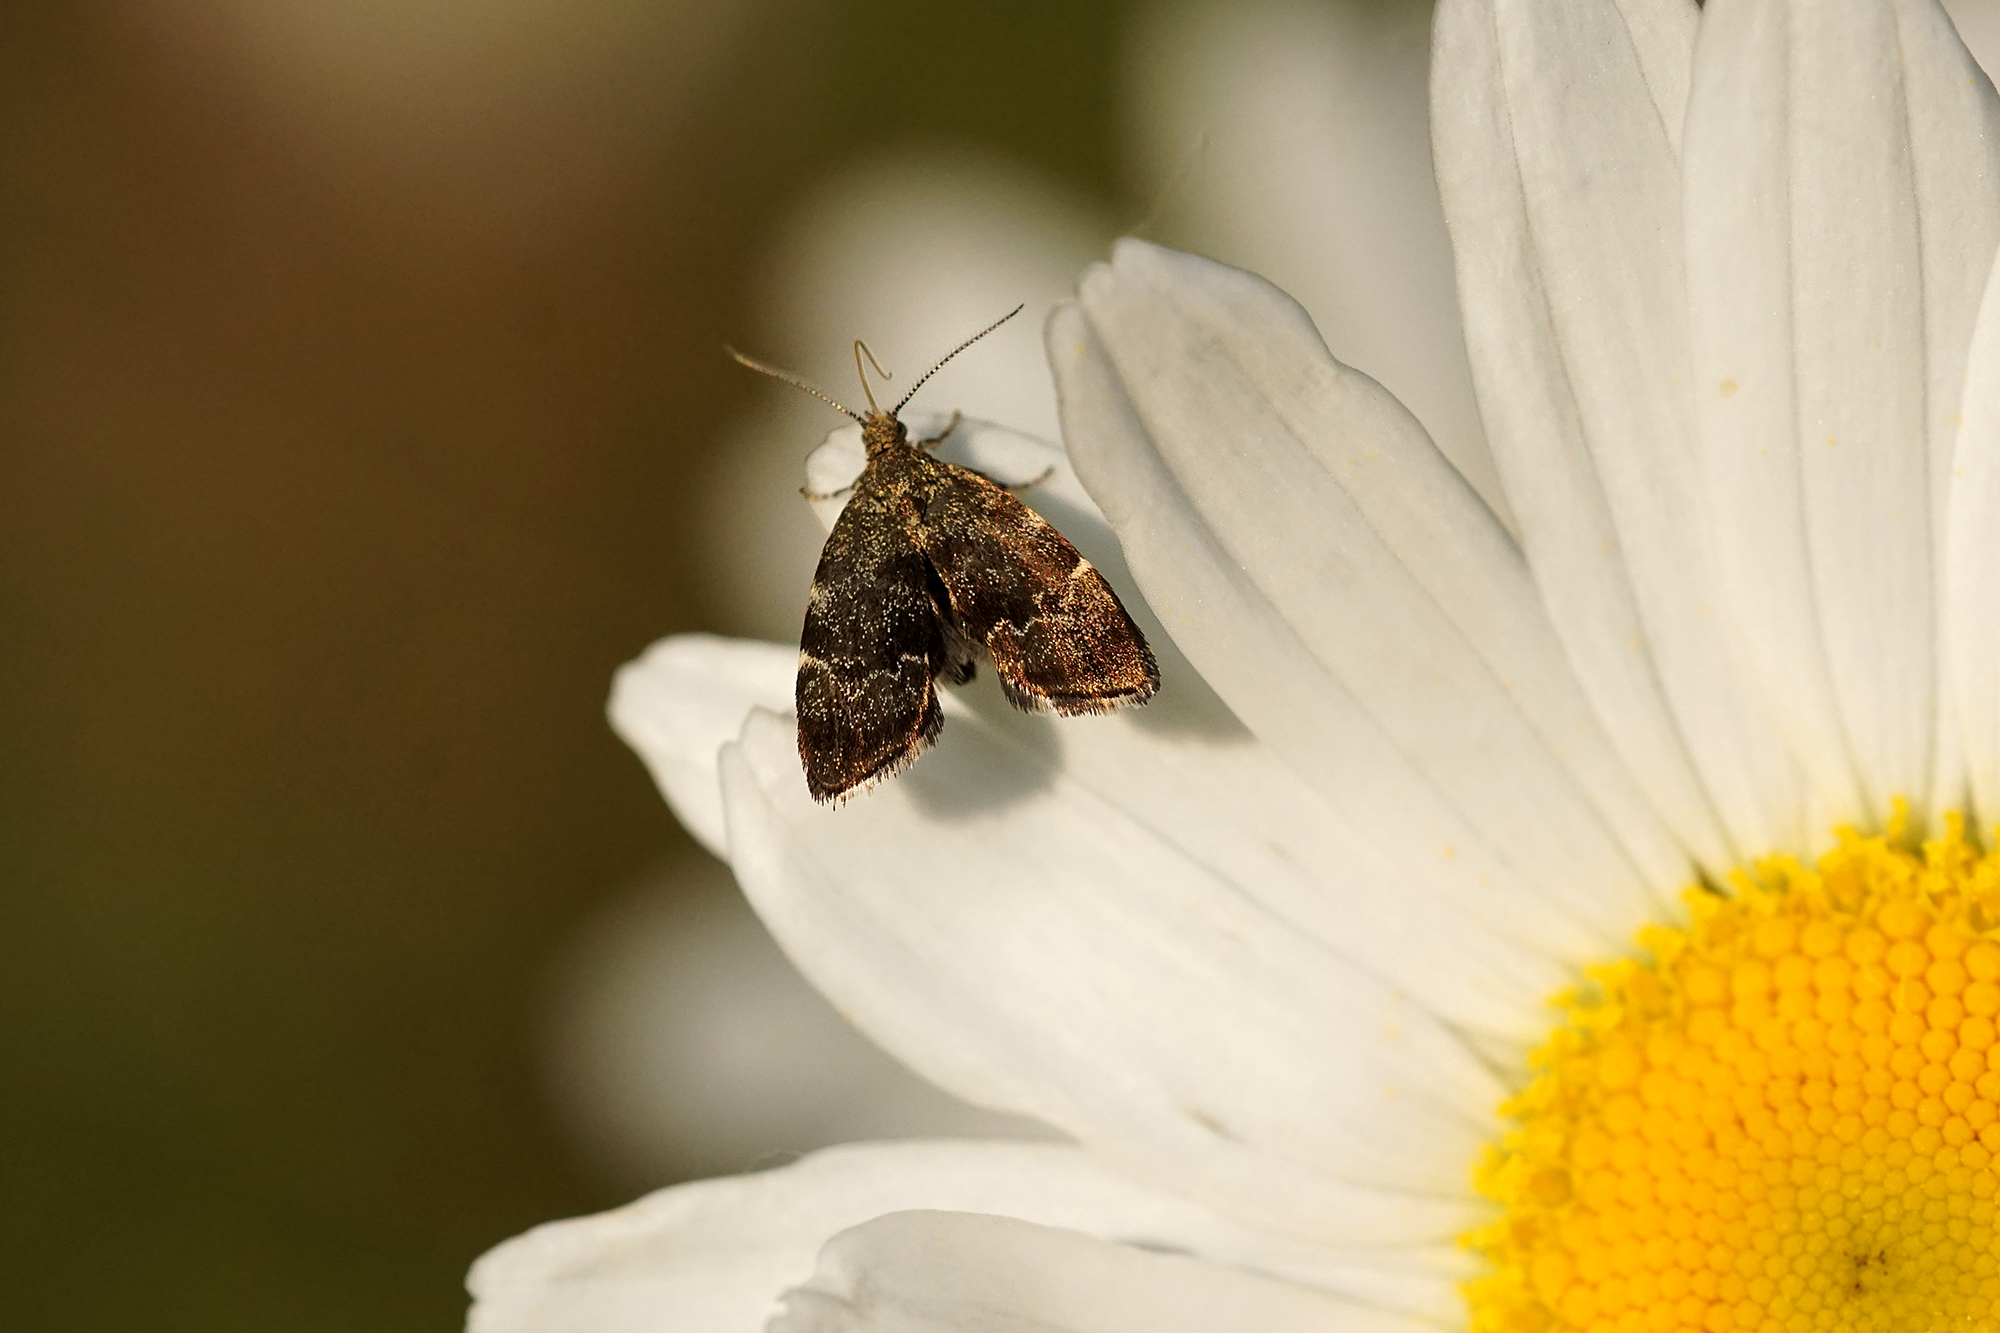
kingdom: Animalia
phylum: Arthropoda
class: Insecta
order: Lepidoptera
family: Choreutidae
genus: Anthophila
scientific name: Anthophila fabriciana
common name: Nettle-tap
